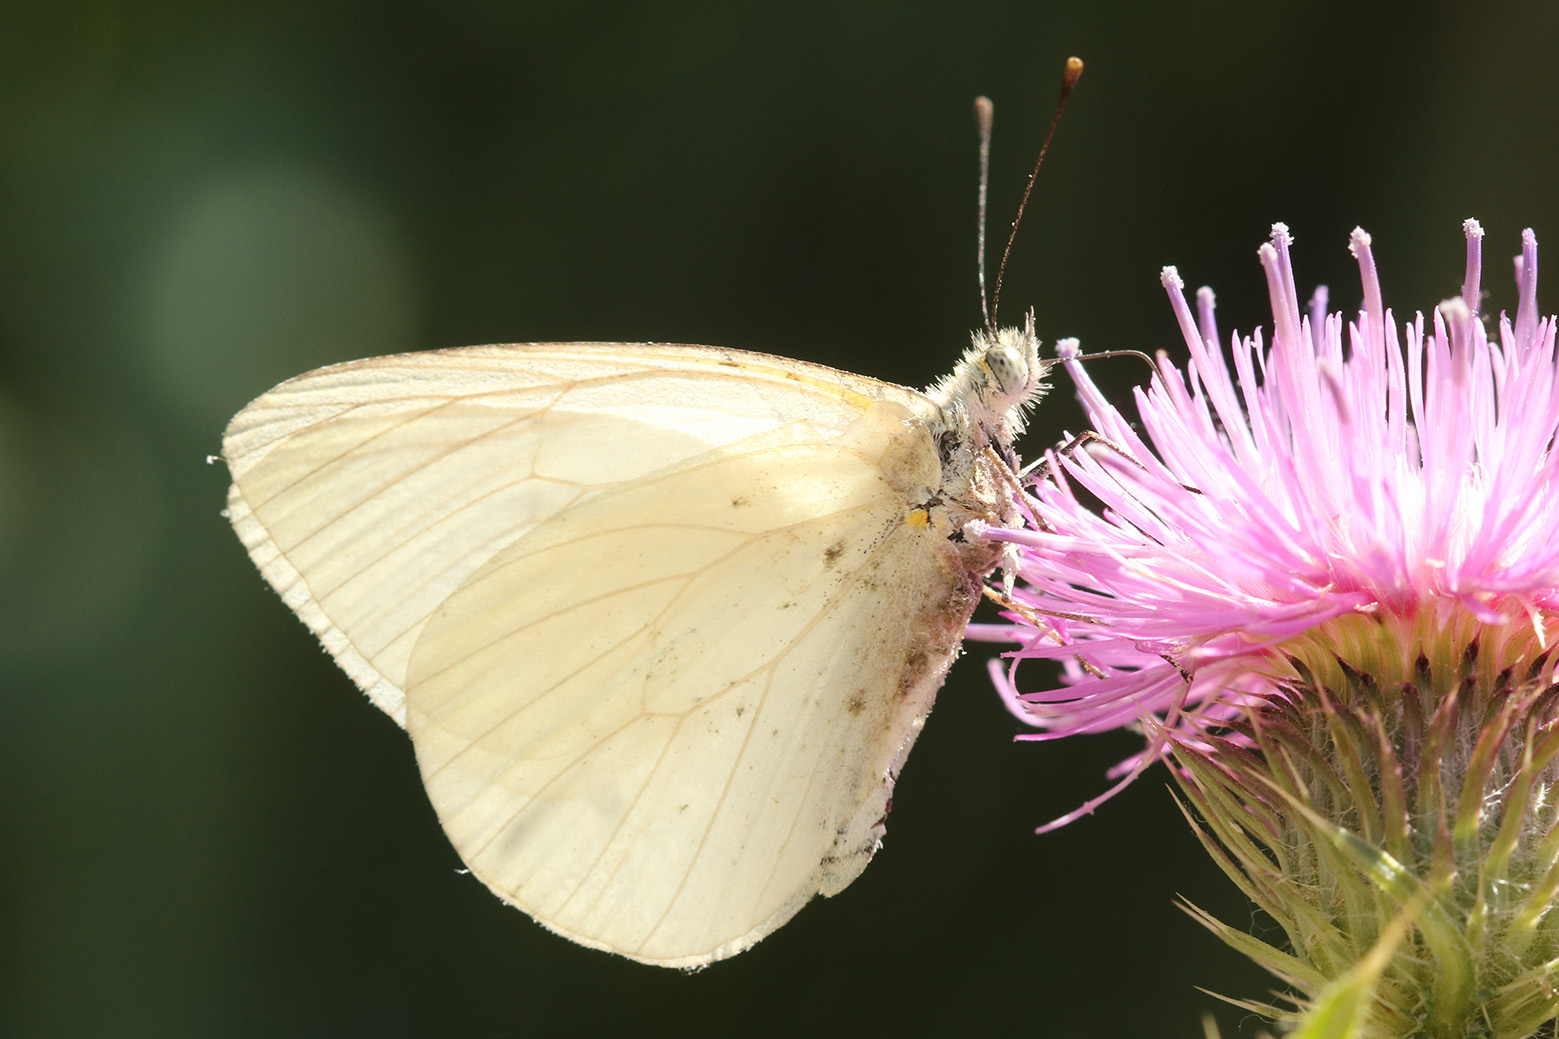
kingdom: Animalia
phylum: Arthropoda
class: Insecta
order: Lepidoptera
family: Pieridae
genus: Theochila
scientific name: Theochila maenacte
